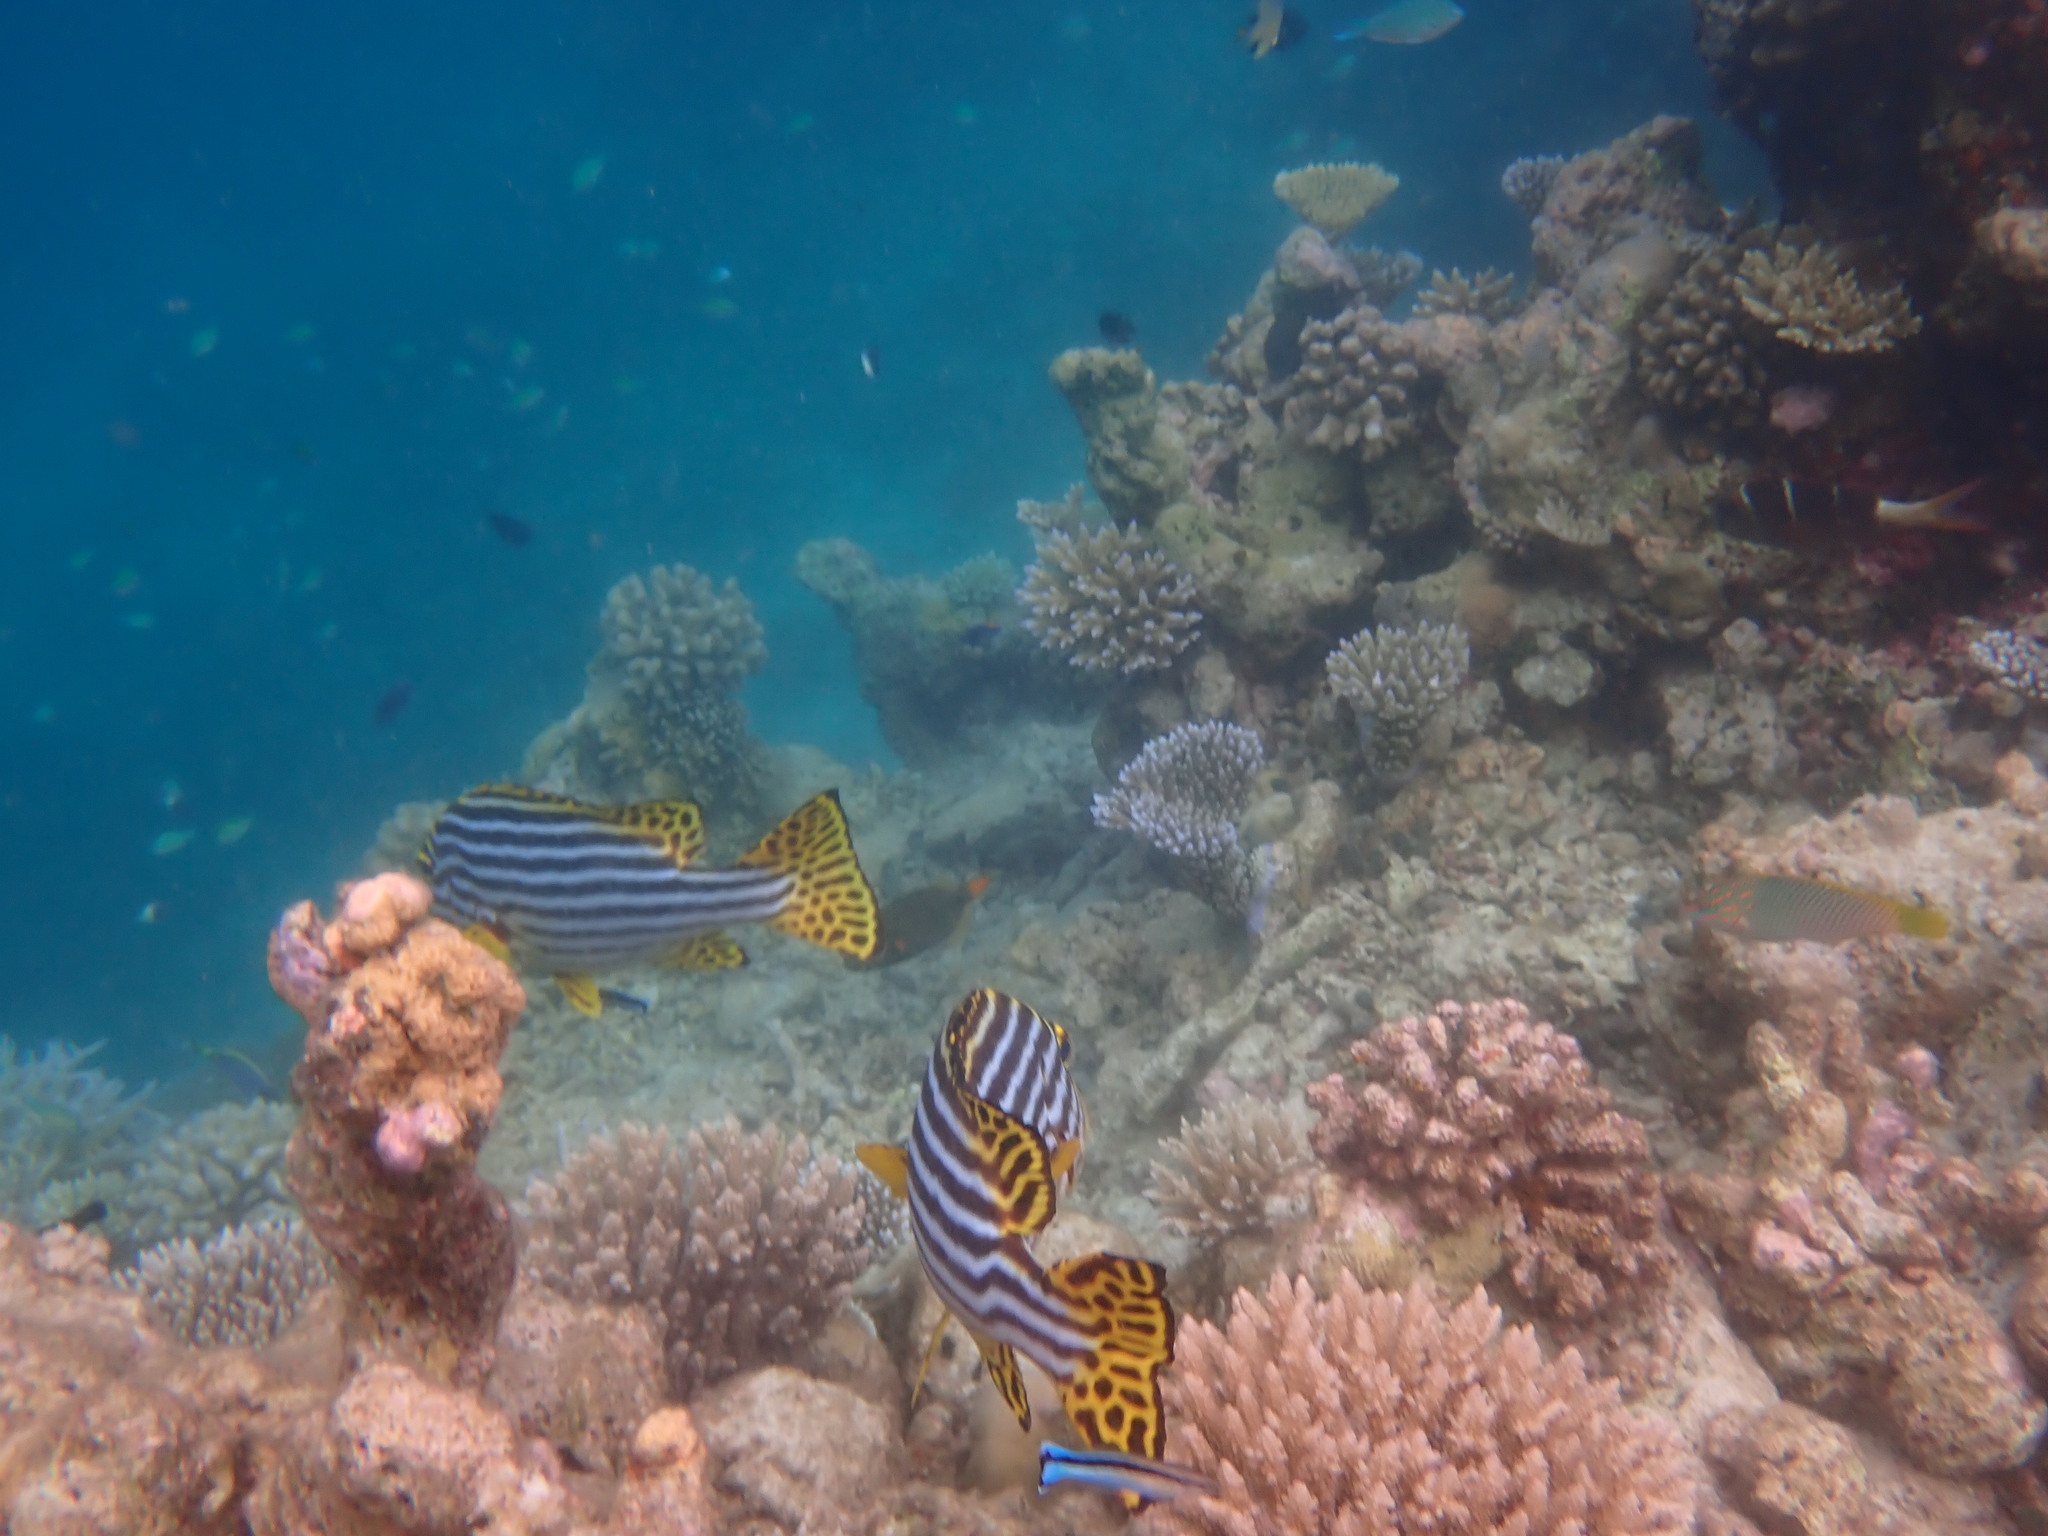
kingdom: Animalia
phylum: Chordata
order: Perciformes
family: Haemulidae
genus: Plectorhinchus
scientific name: Plectorhinchus vittatus
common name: Oriental sweetlips
